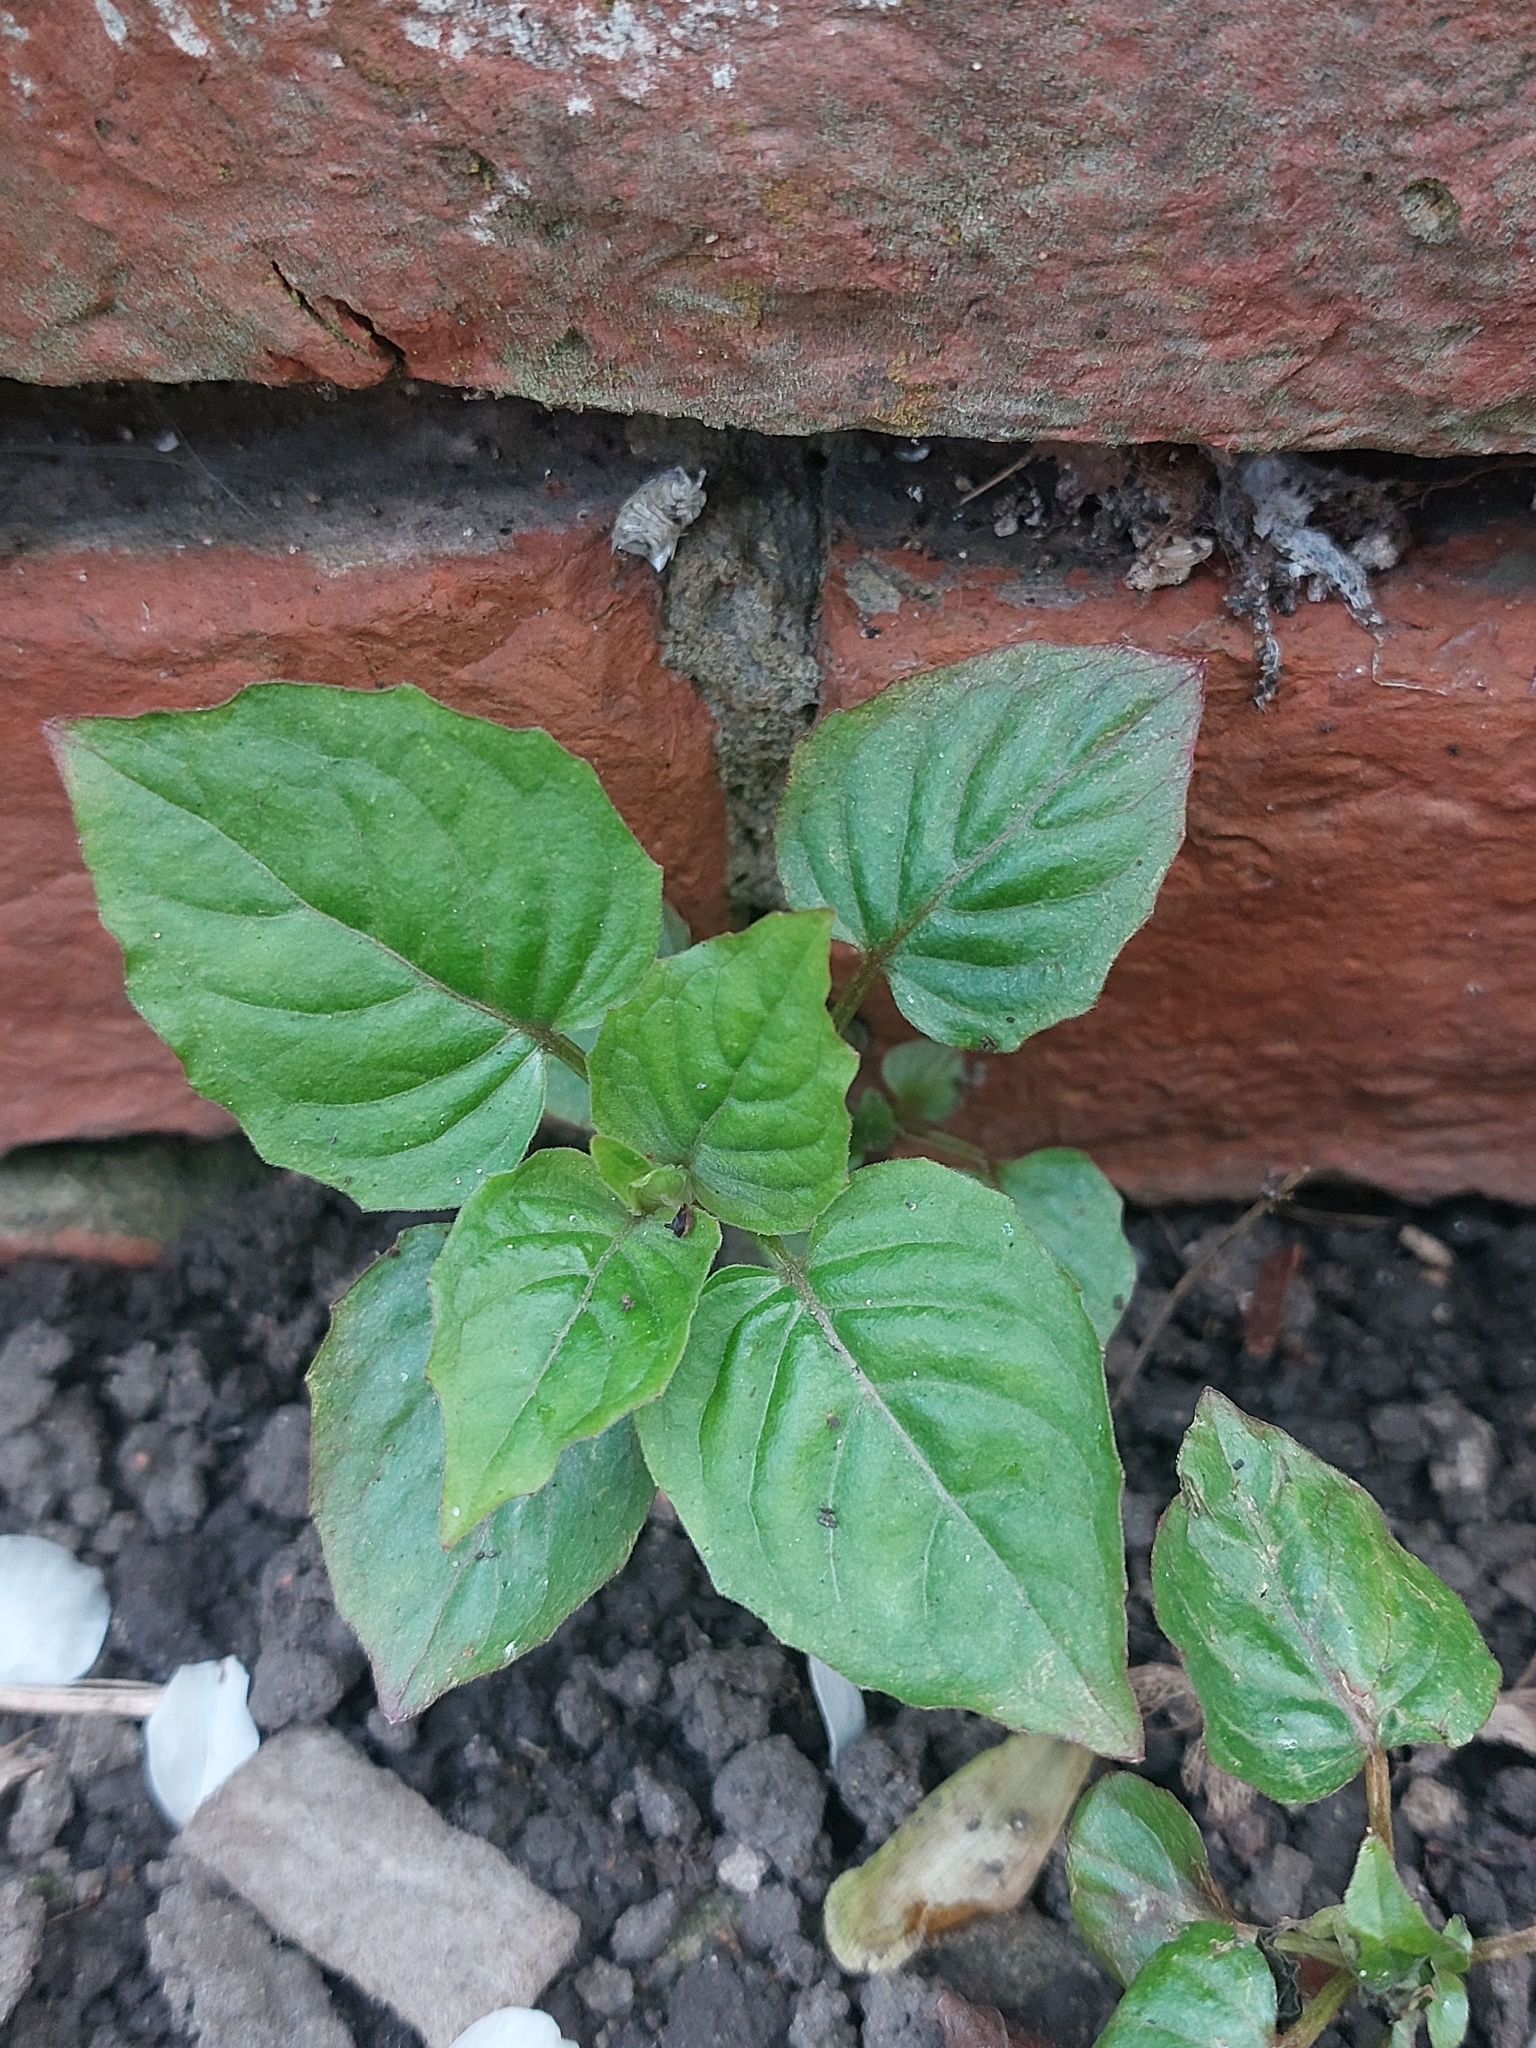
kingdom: Plantae
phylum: Tracheophyta
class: Magnoliopsida
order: Myrtales
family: Onagraceae
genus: Circaea
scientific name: Circaea lutetiana
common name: Enchanter's-nightshade
